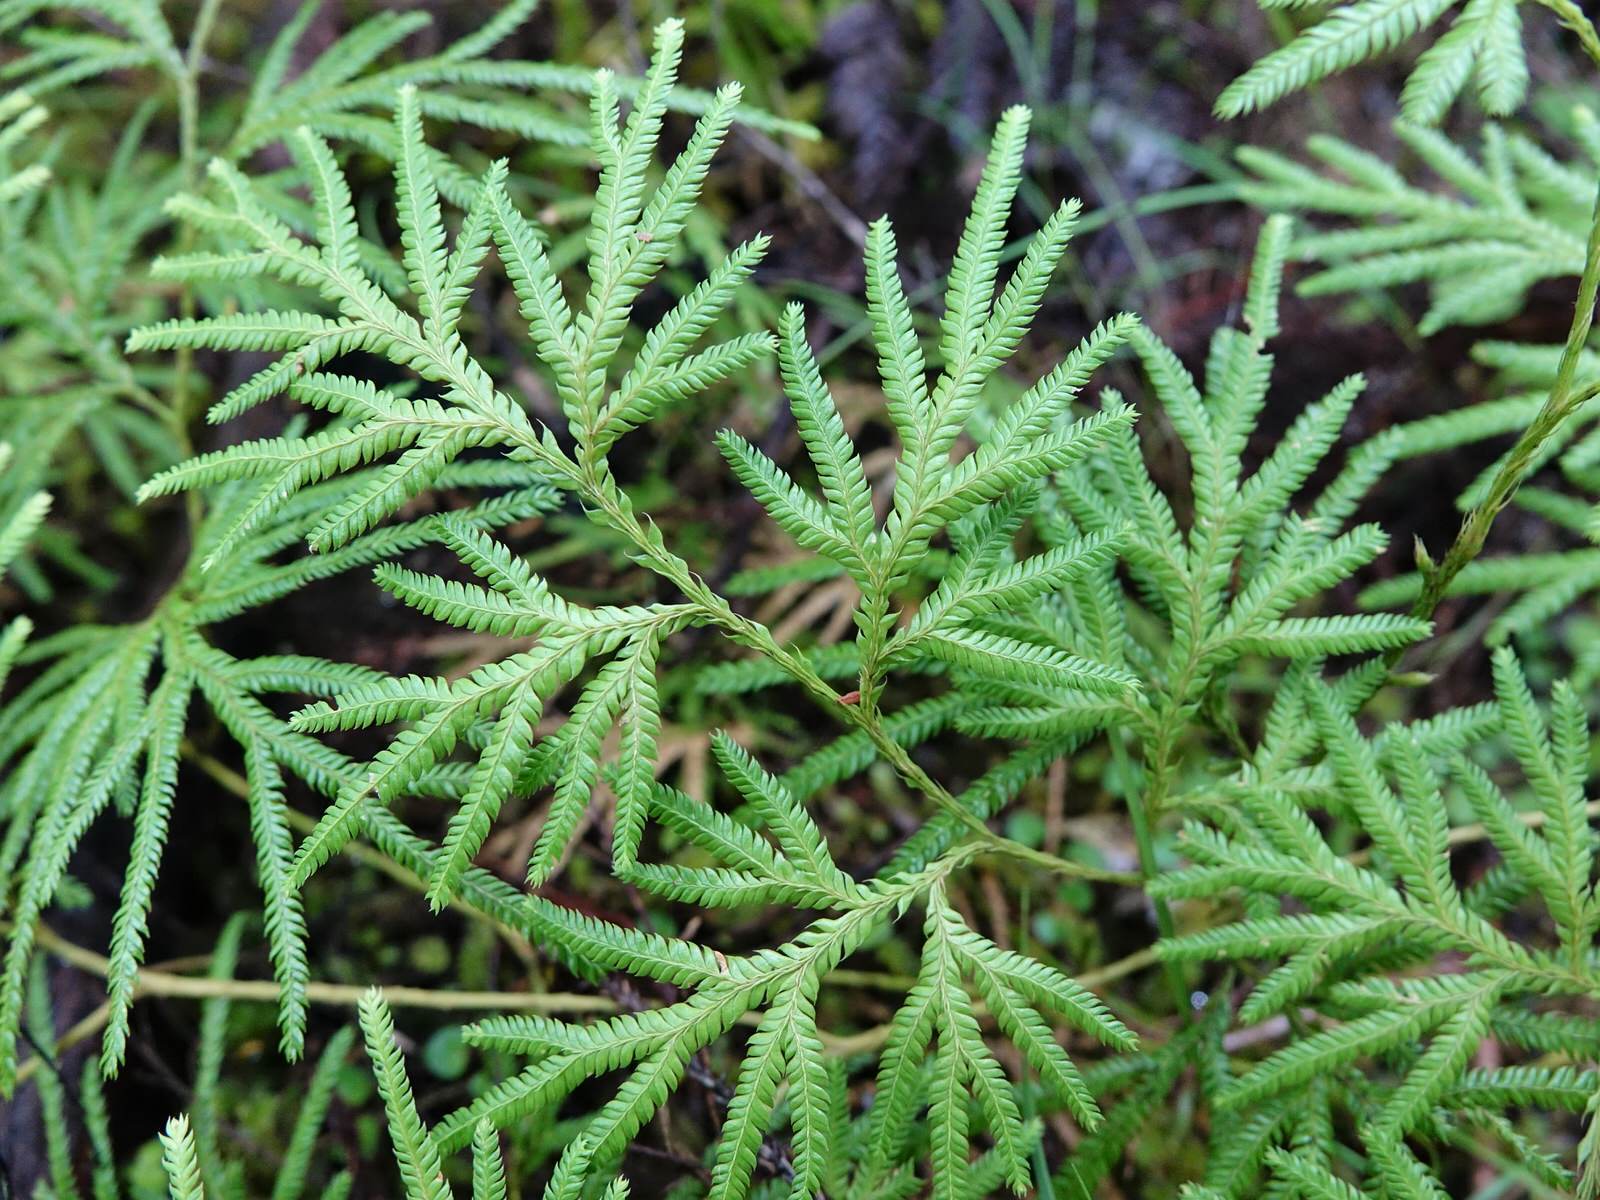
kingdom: Plantae
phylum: Tracheophyta
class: Lycopodiopsida
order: Lycopodiales
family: Lycopodiaceae
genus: Lycopodium
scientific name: Lycopodium volubile
